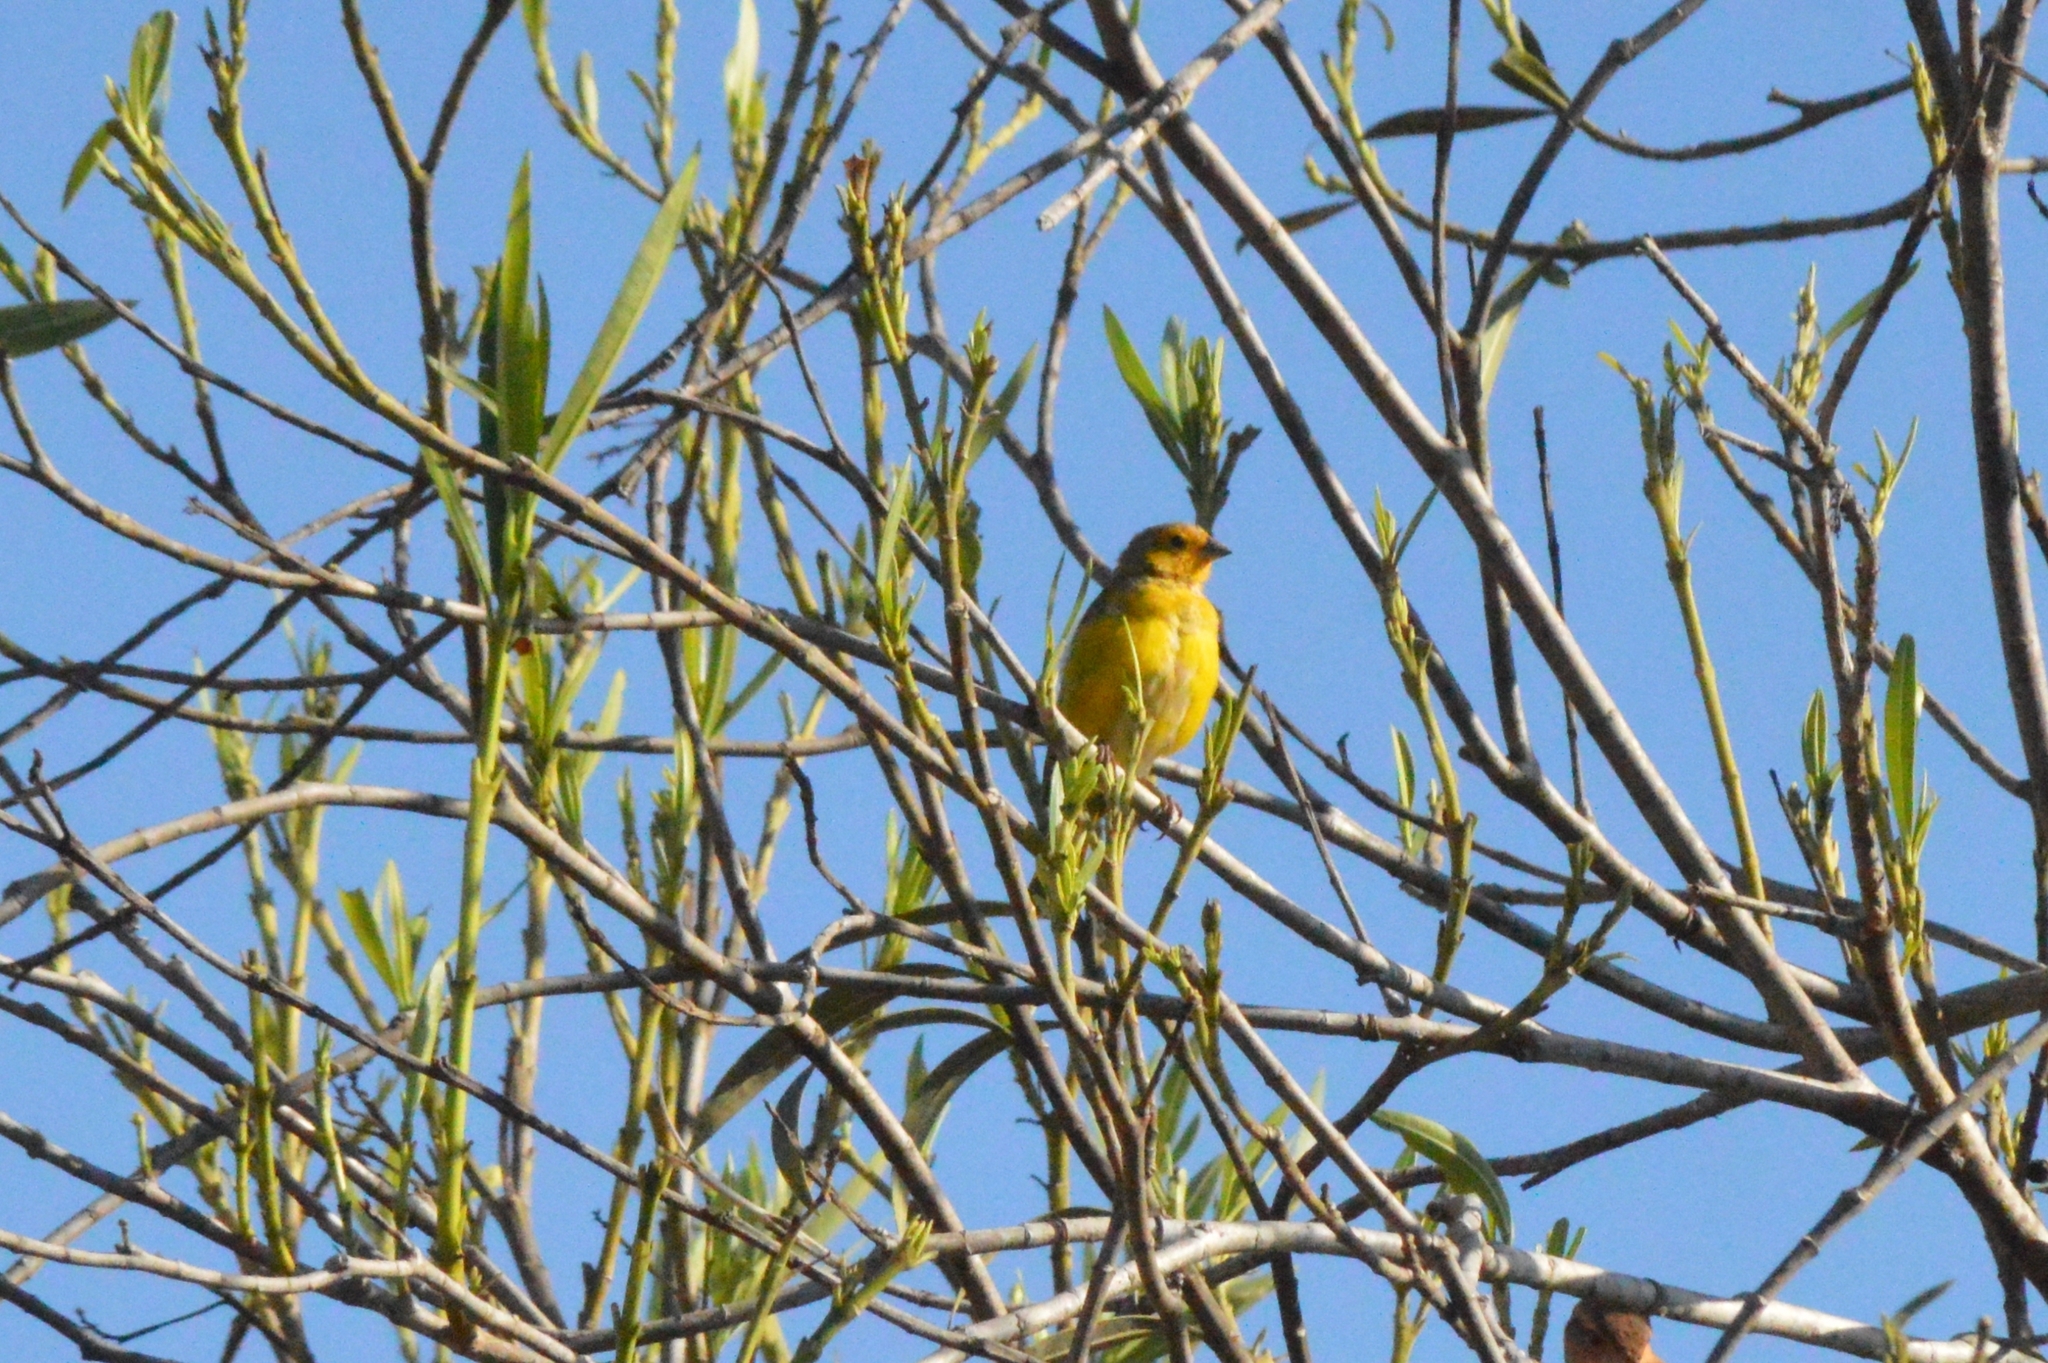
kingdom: Animalia
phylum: Chordata
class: Aves
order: Passeriformes
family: Thraupidae
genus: Sicalis
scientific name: Sicalis flaveola
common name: Saffron finch
